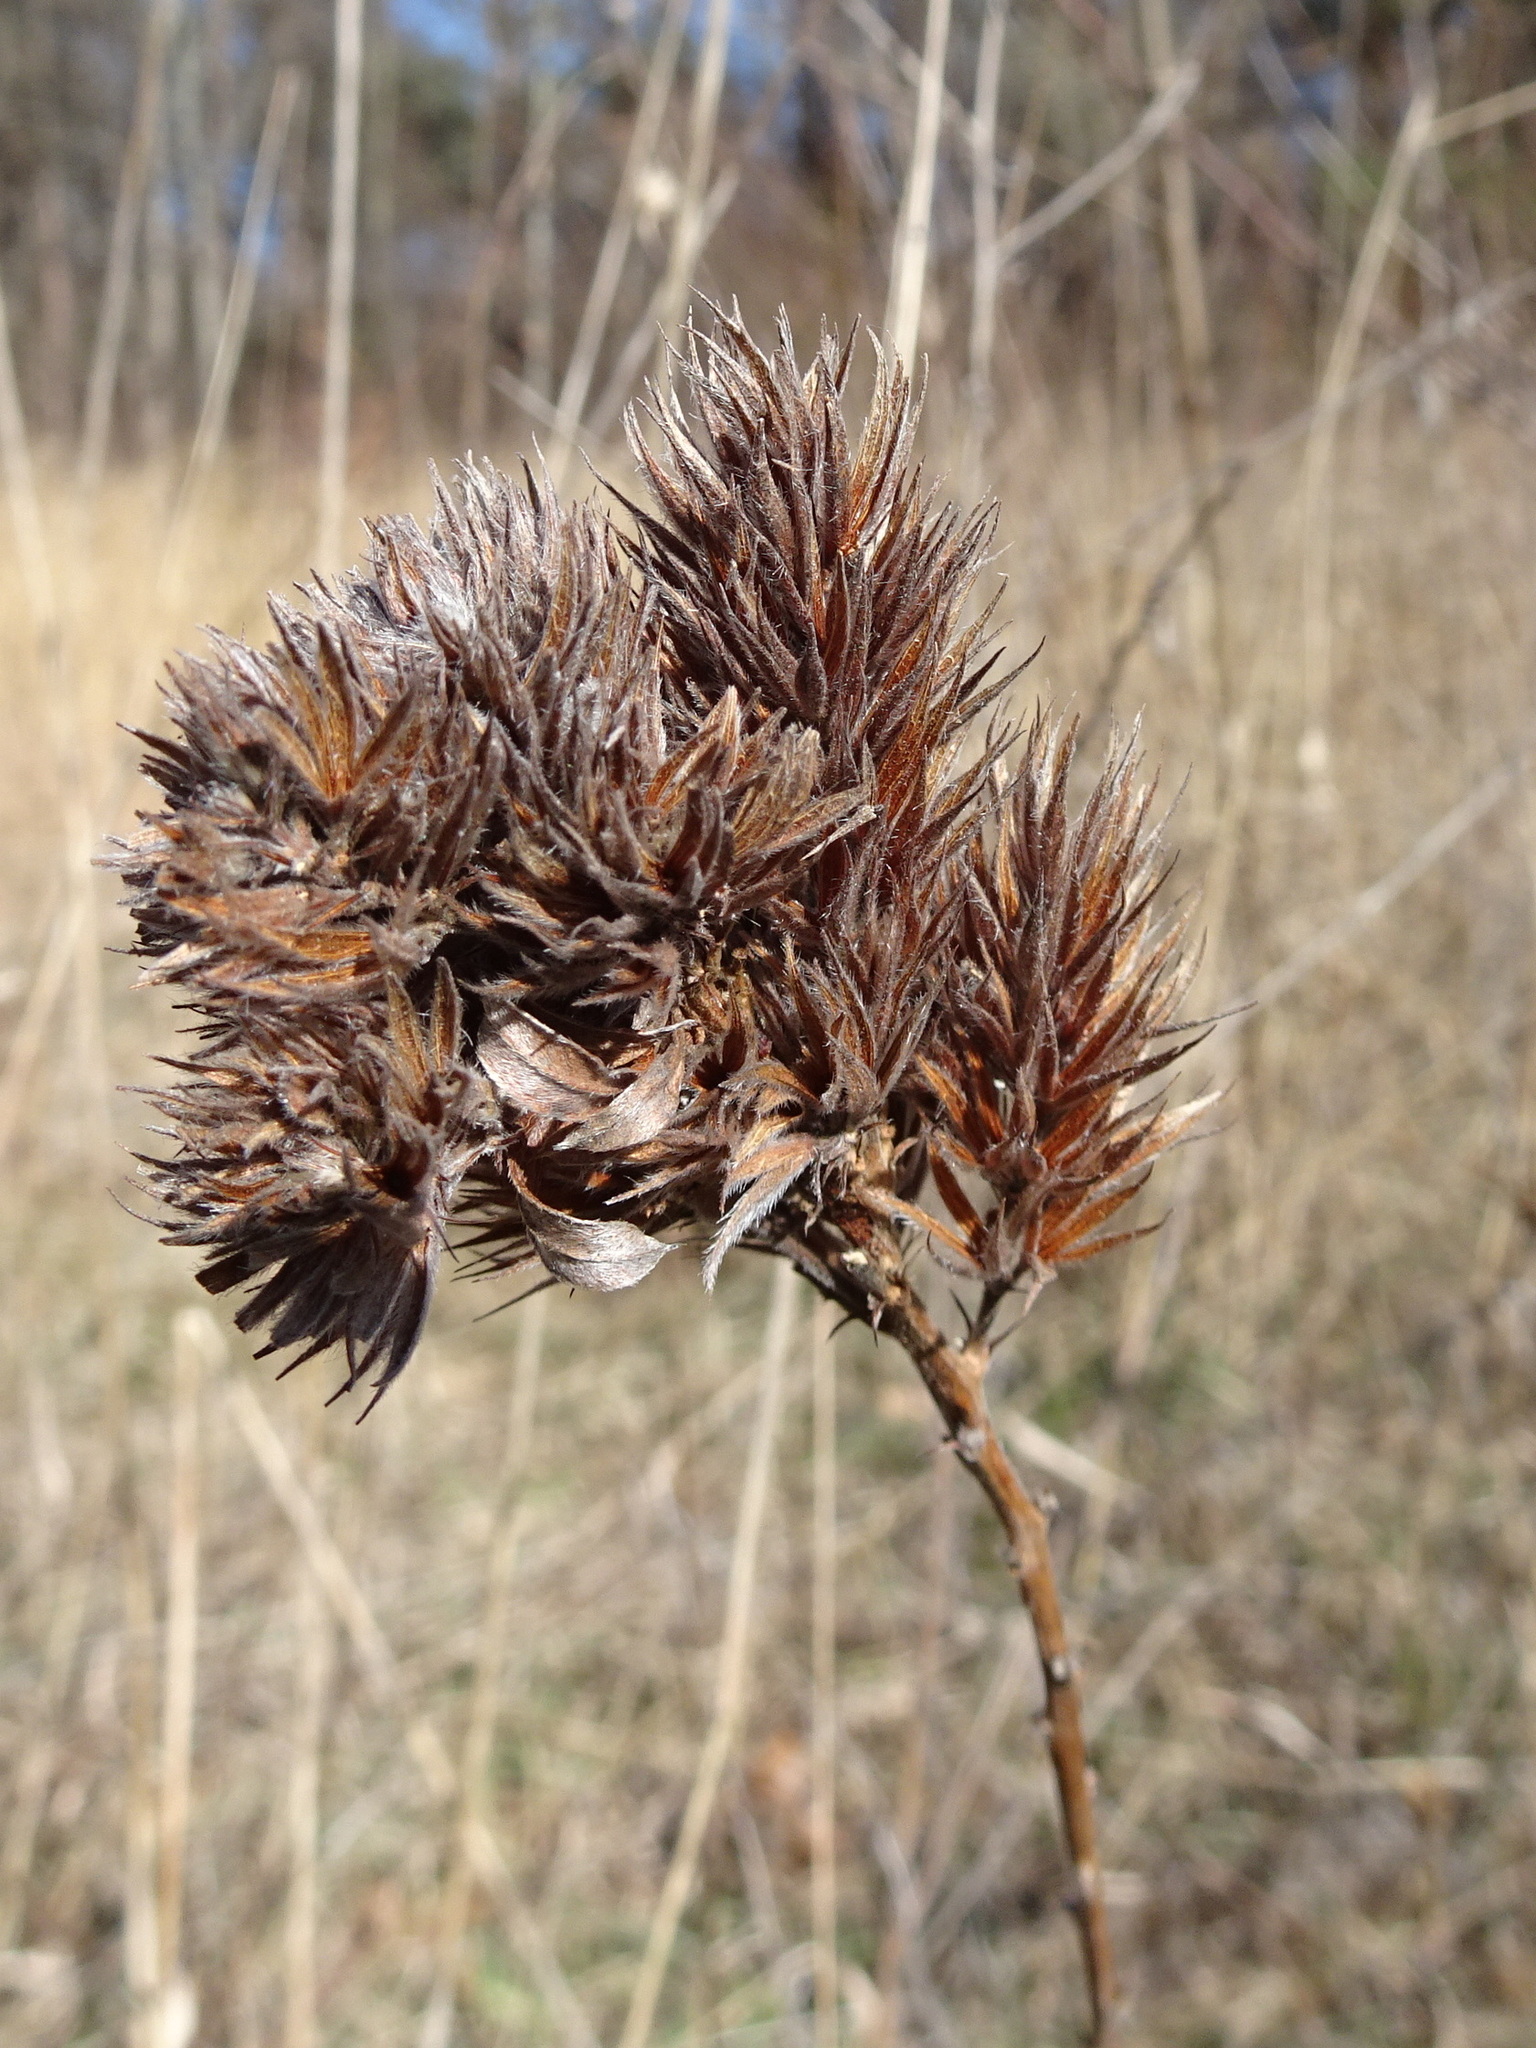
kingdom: Plantae
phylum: Tracheophyta
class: Magnoliopsida
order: Fabales
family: Fabaceae
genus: Lespedeza
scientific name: Lespedeza capitata
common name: Dusty clover
